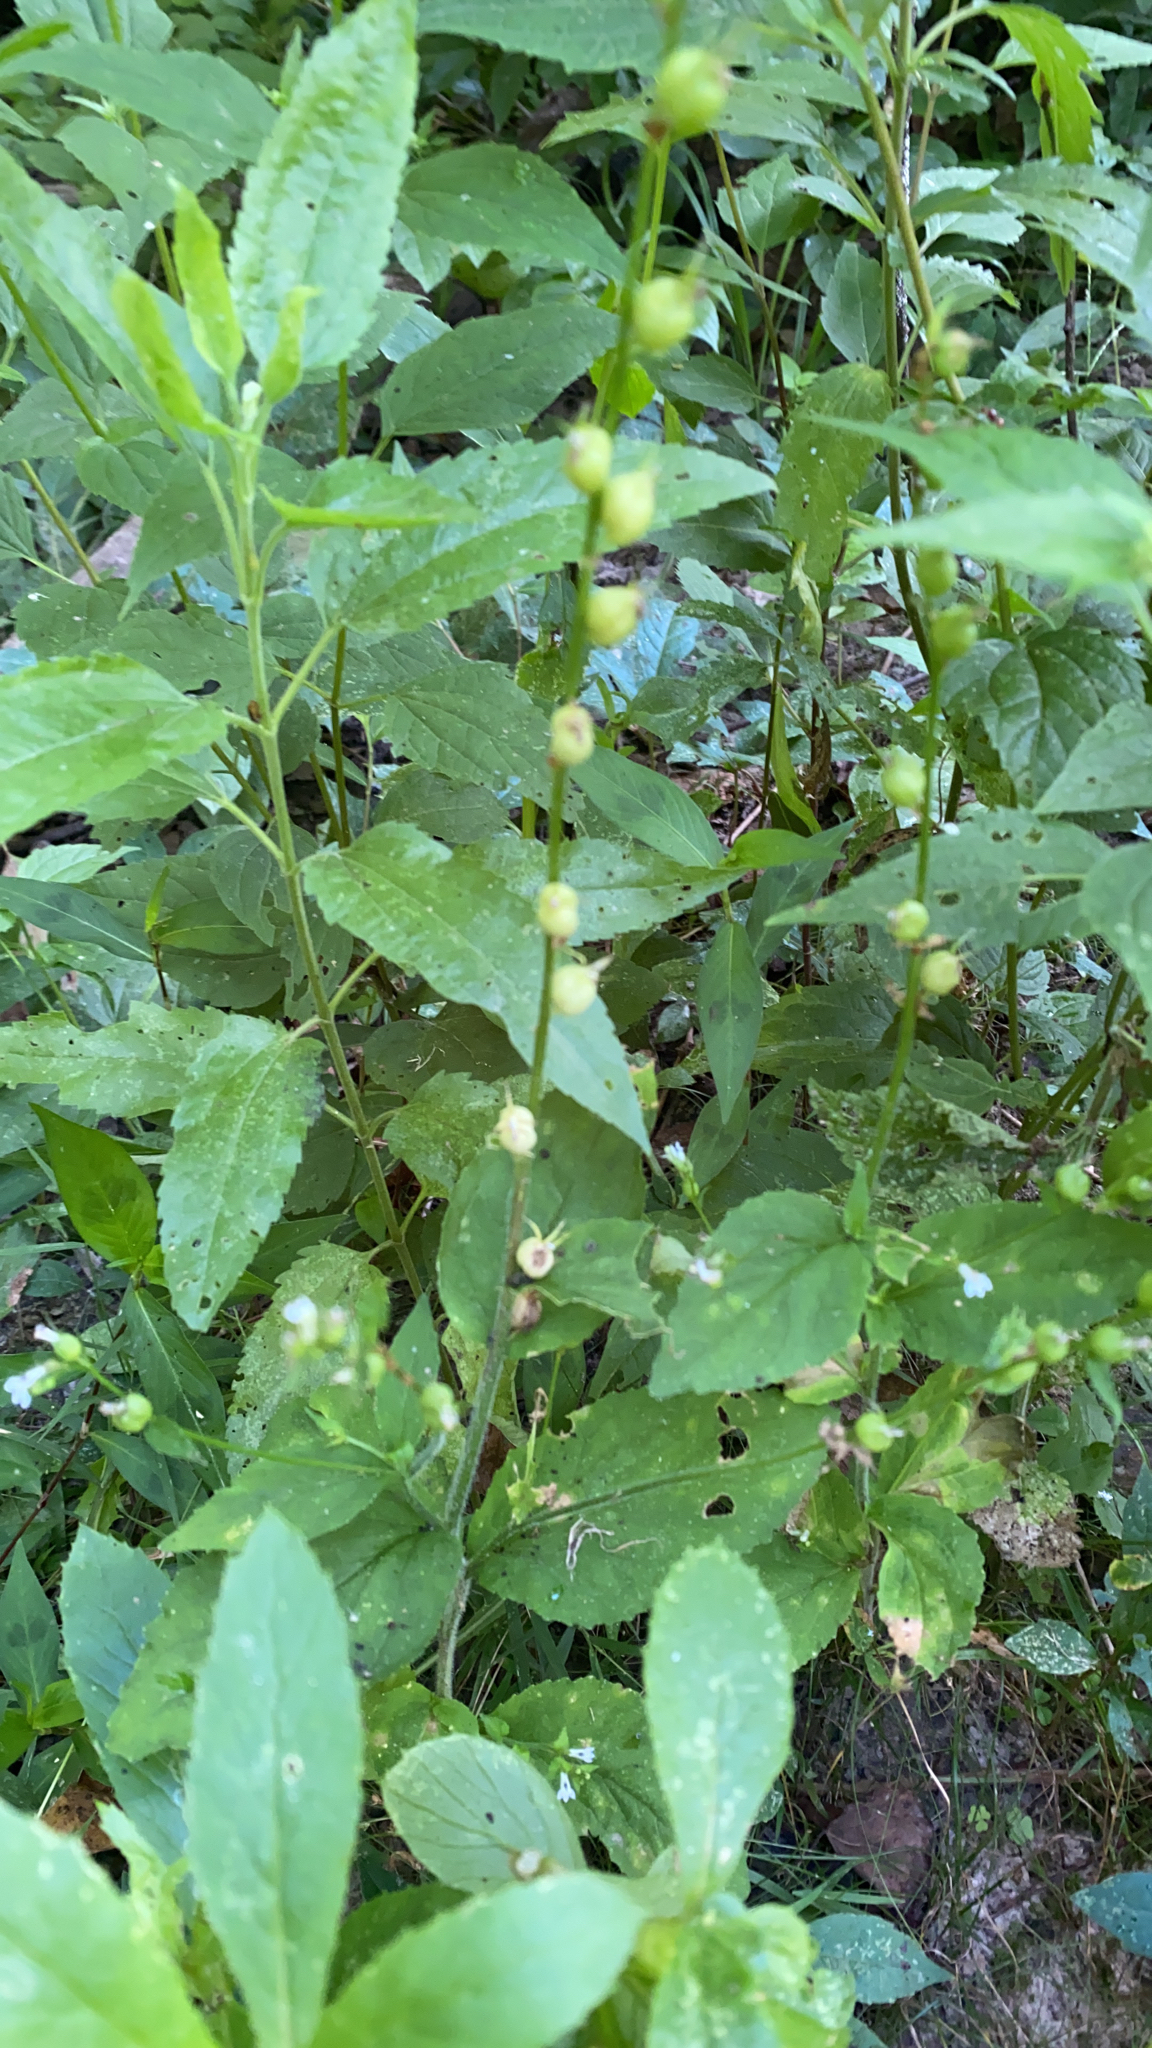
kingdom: Plantae
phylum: Tracheophyta
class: Magnoliopsida
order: Asterales
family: Campanulaceae
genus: Lobelia
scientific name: Lobelia inflata
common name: Indian tobacco
